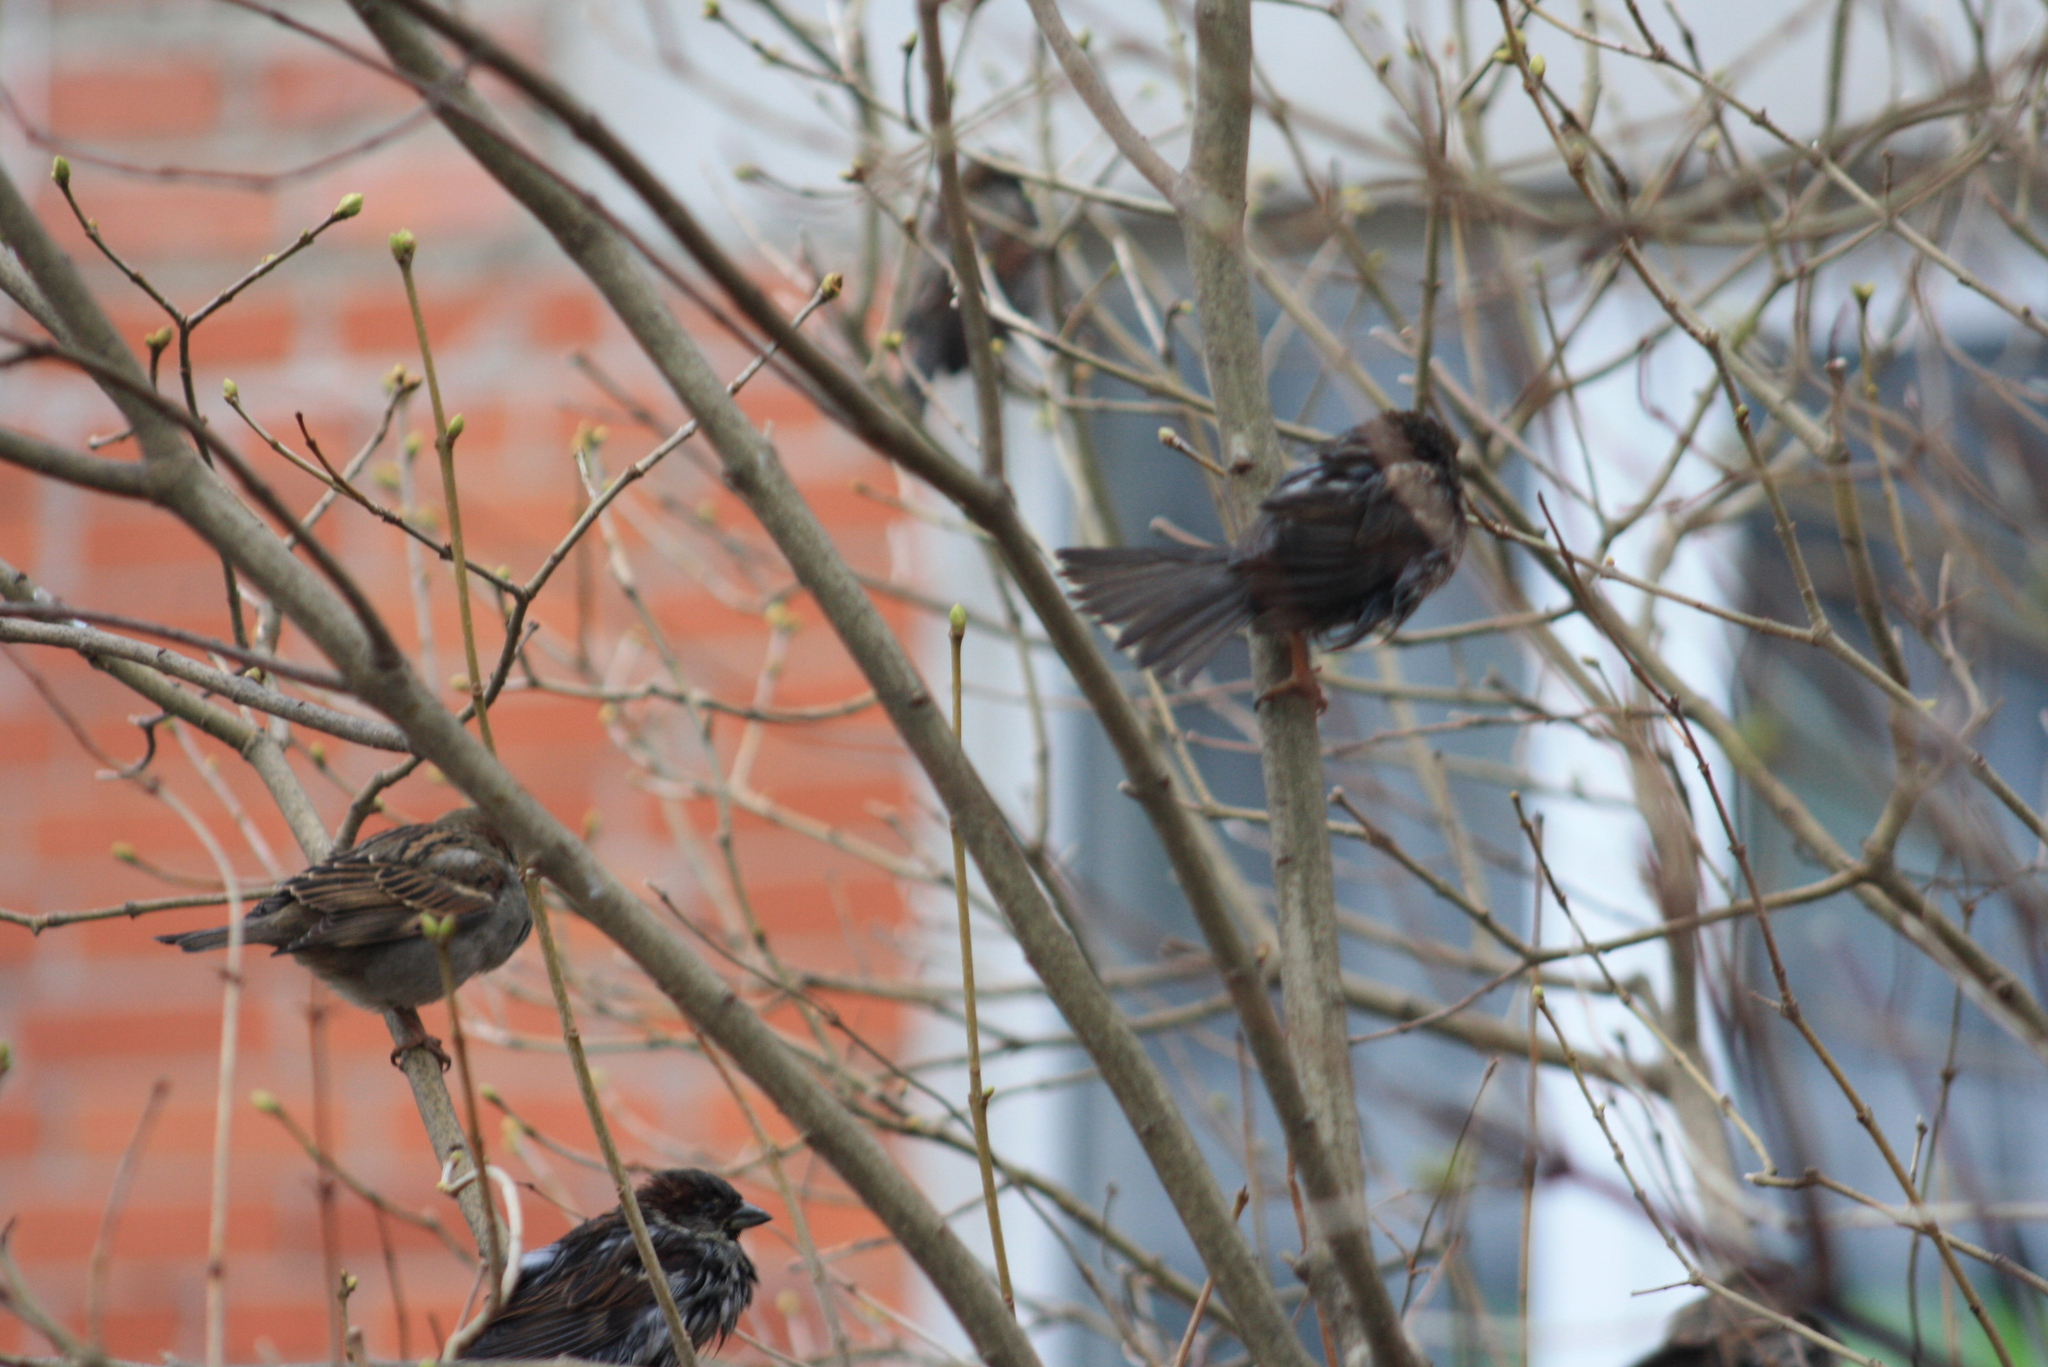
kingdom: Animalia
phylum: Chordata
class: Aves
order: Passeriformes
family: Passeridae
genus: Passer
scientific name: Passer domesticus
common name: House sparrow
